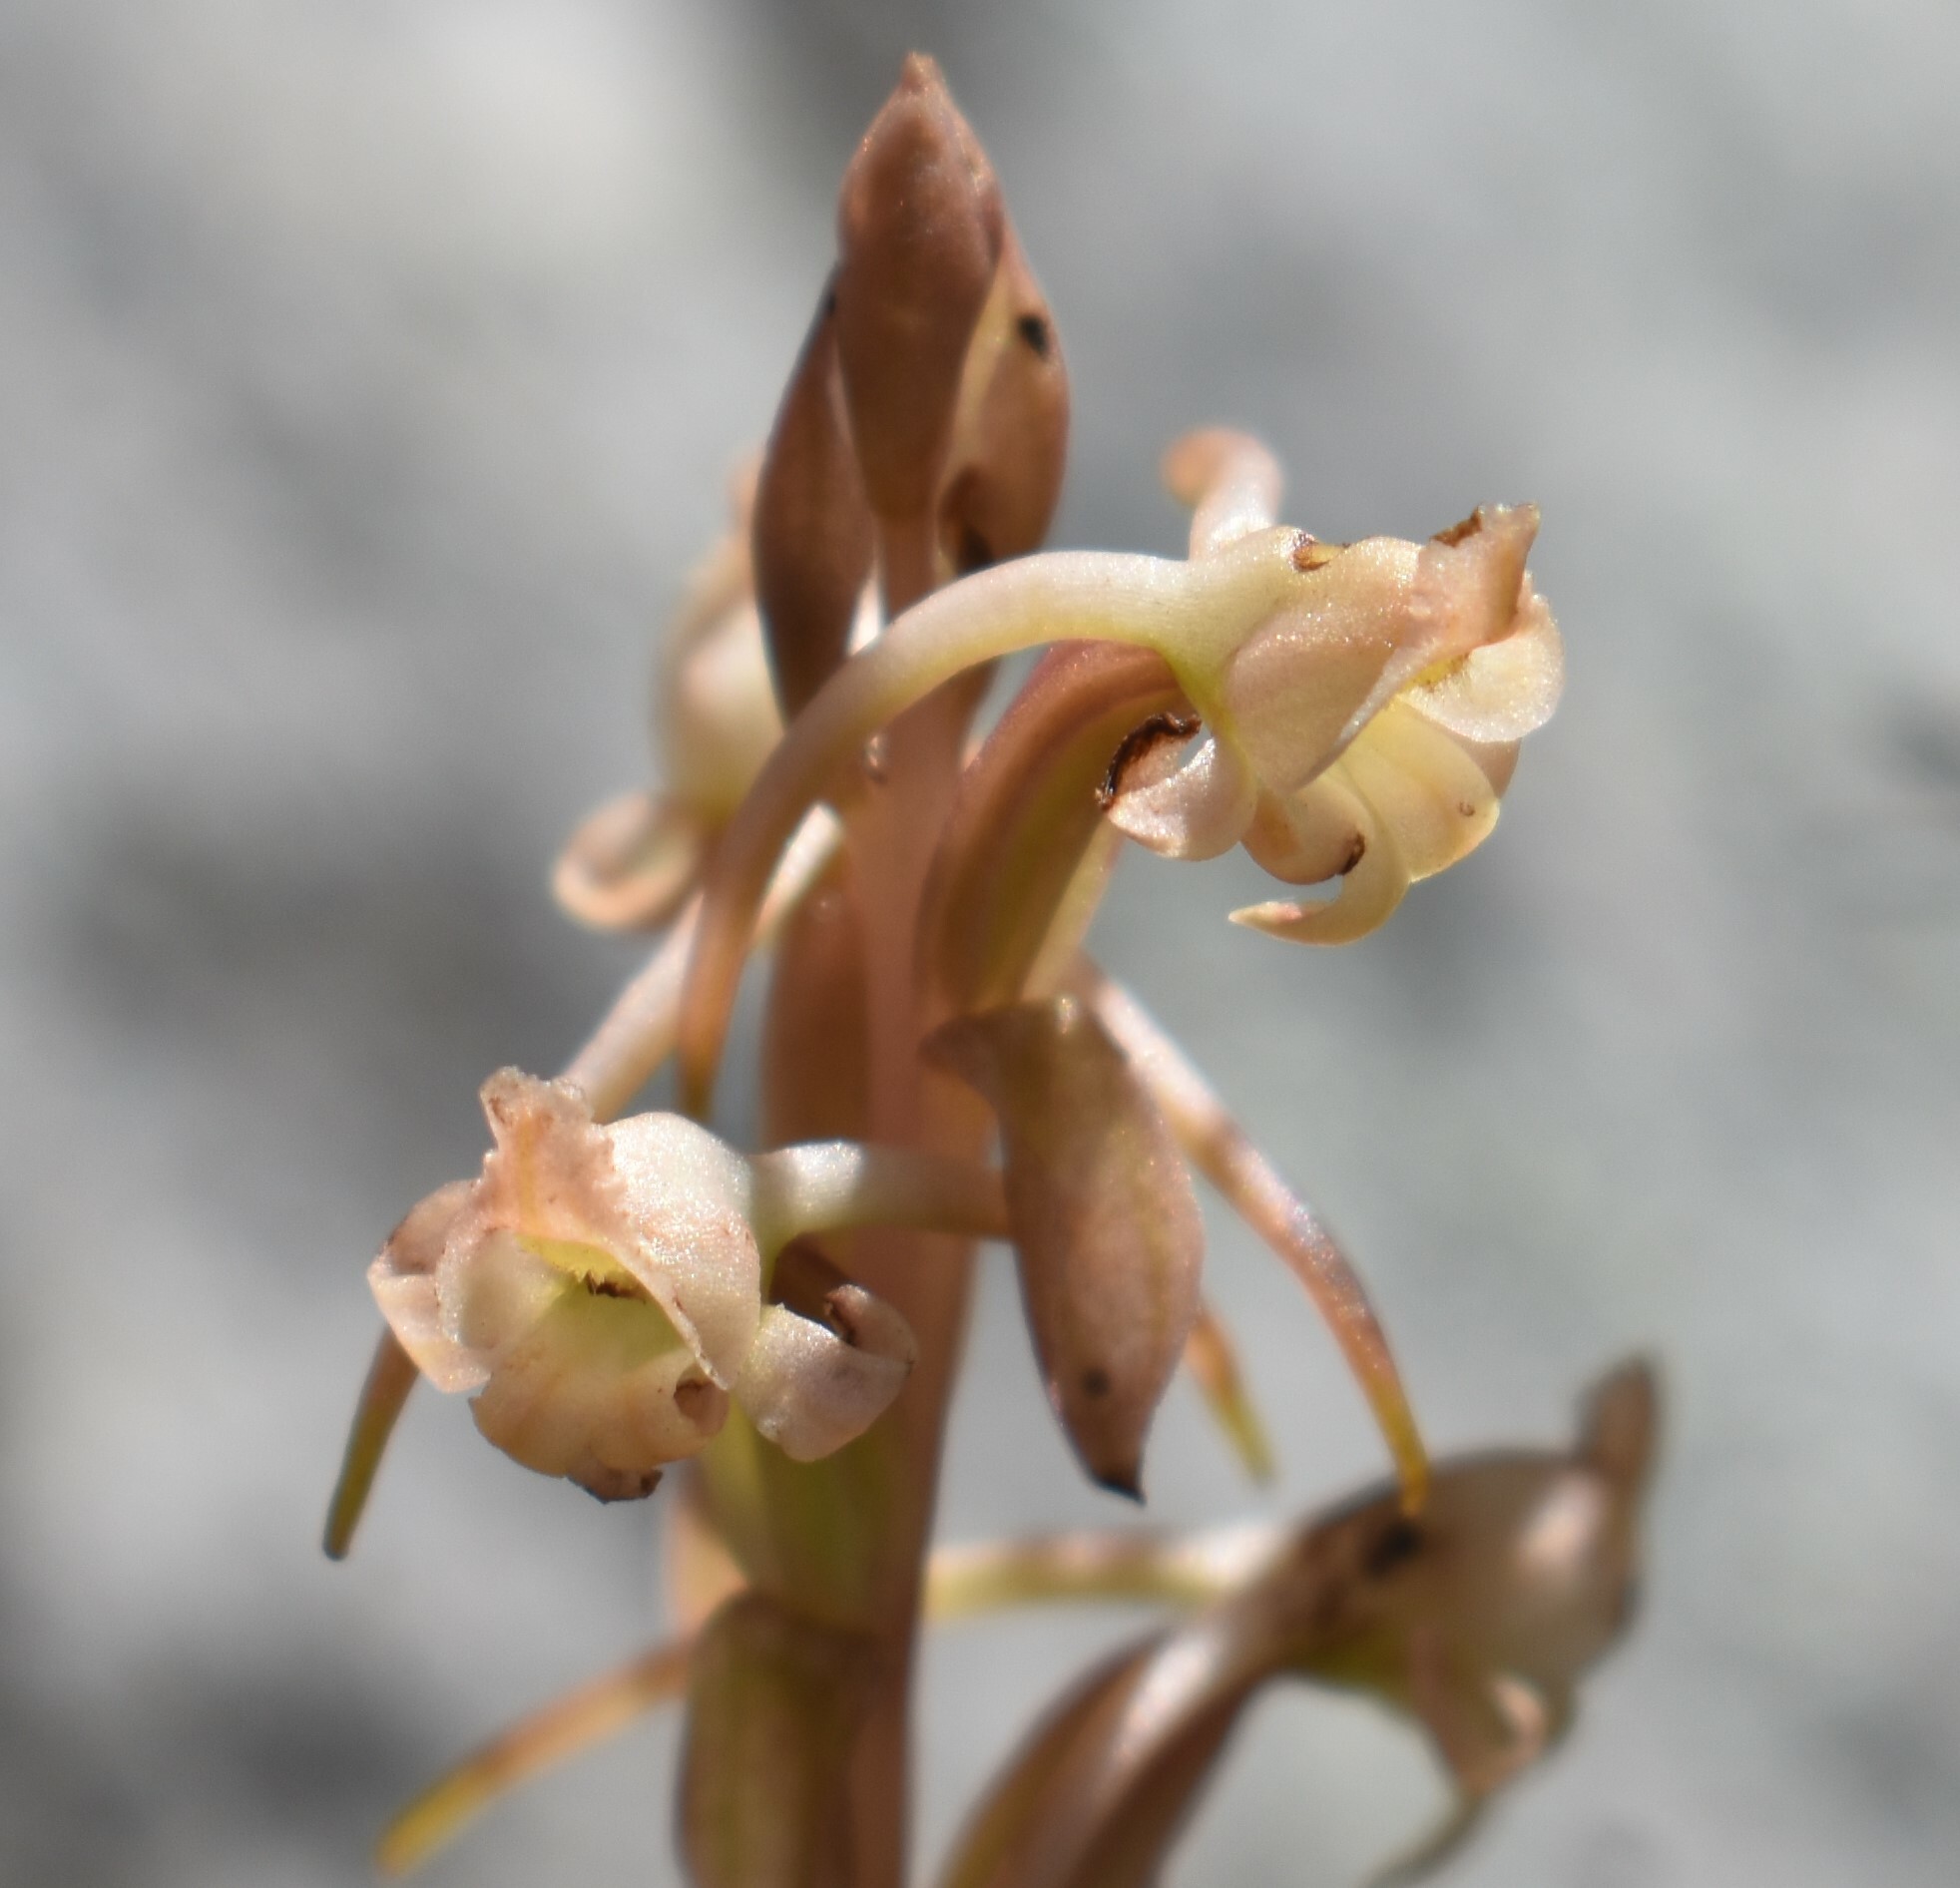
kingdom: Plantae
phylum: Tracheophyta
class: Liliopsida
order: Asparagales
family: Orchidaceae
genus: Satyrium
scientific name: Satyrium humile
